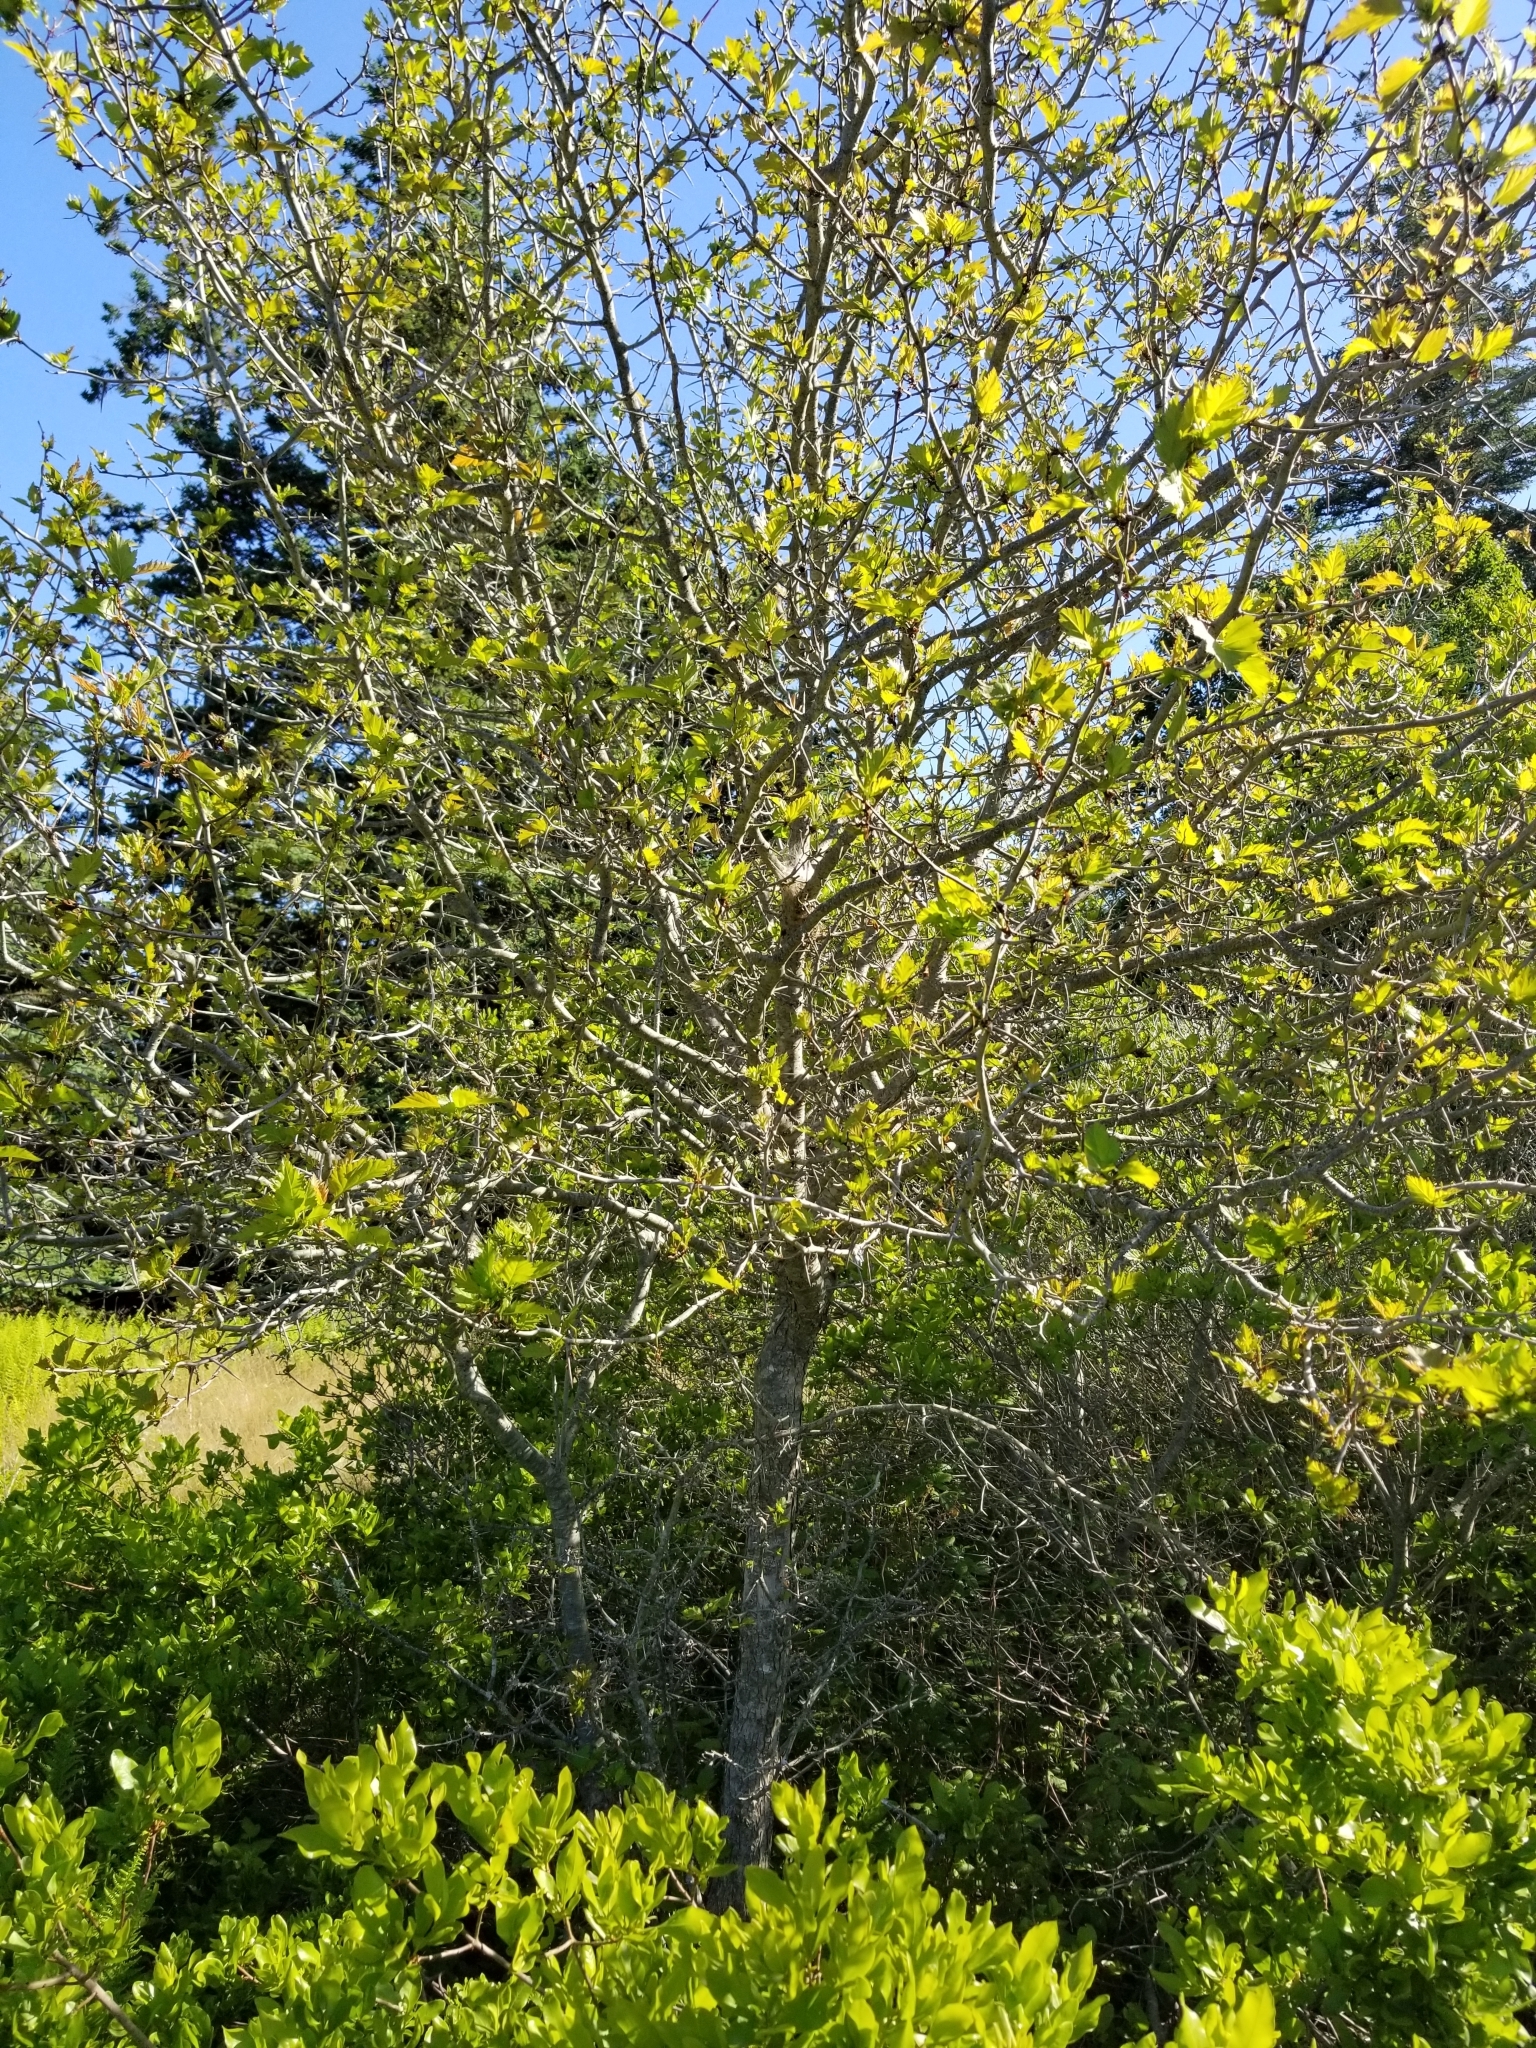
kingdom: Plantae
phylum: Tracheophyta
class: Magnoliopsida
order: Rosales
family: Rosaceae
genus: Crataegus
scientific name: Crataegus
